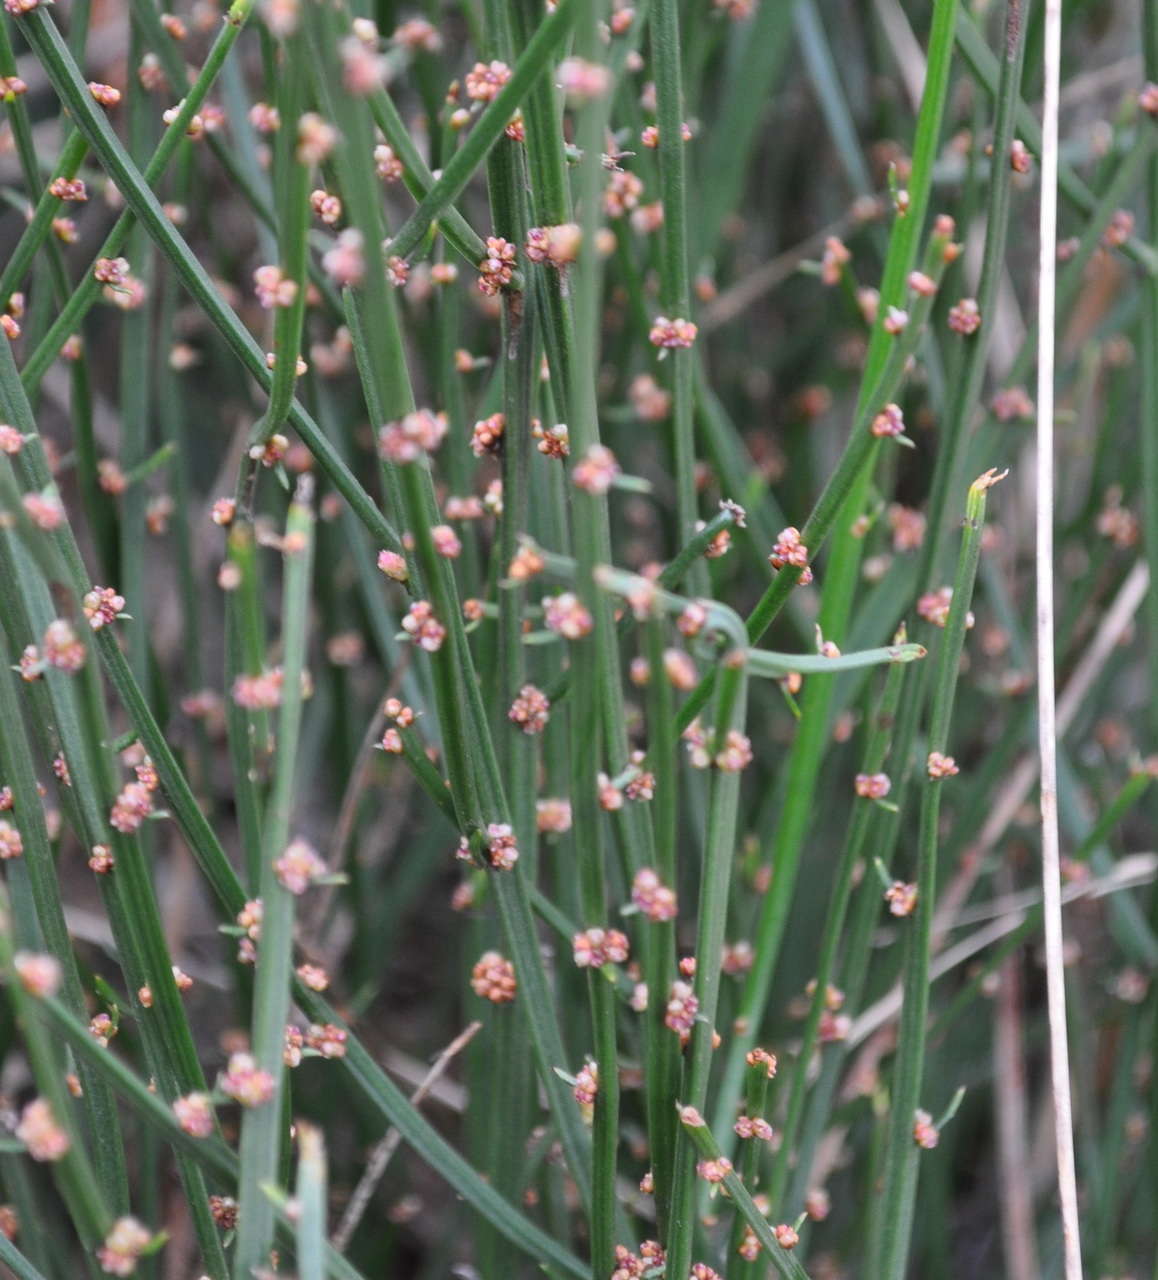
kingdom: Plantae
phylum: Tracheophyta
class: Magnoliopsida
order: Malpighiales
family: Euphorbiaceae
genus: Amperea
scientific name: Amperea xiphoclada
